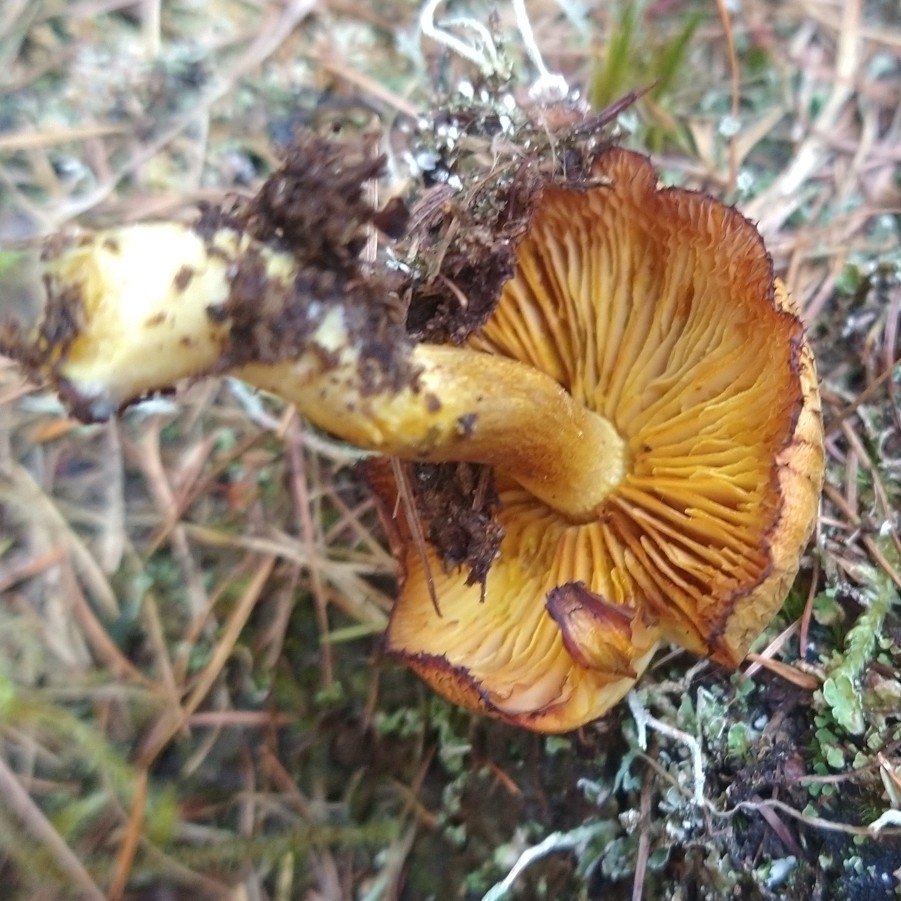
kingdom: Fungi
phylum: Basidiomycota
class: Agaricomycetes
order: Agaricales
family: Tricholomataceae
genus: Tricholomopsis
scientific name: Tricholomopsis decora
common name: Prunes and custard
